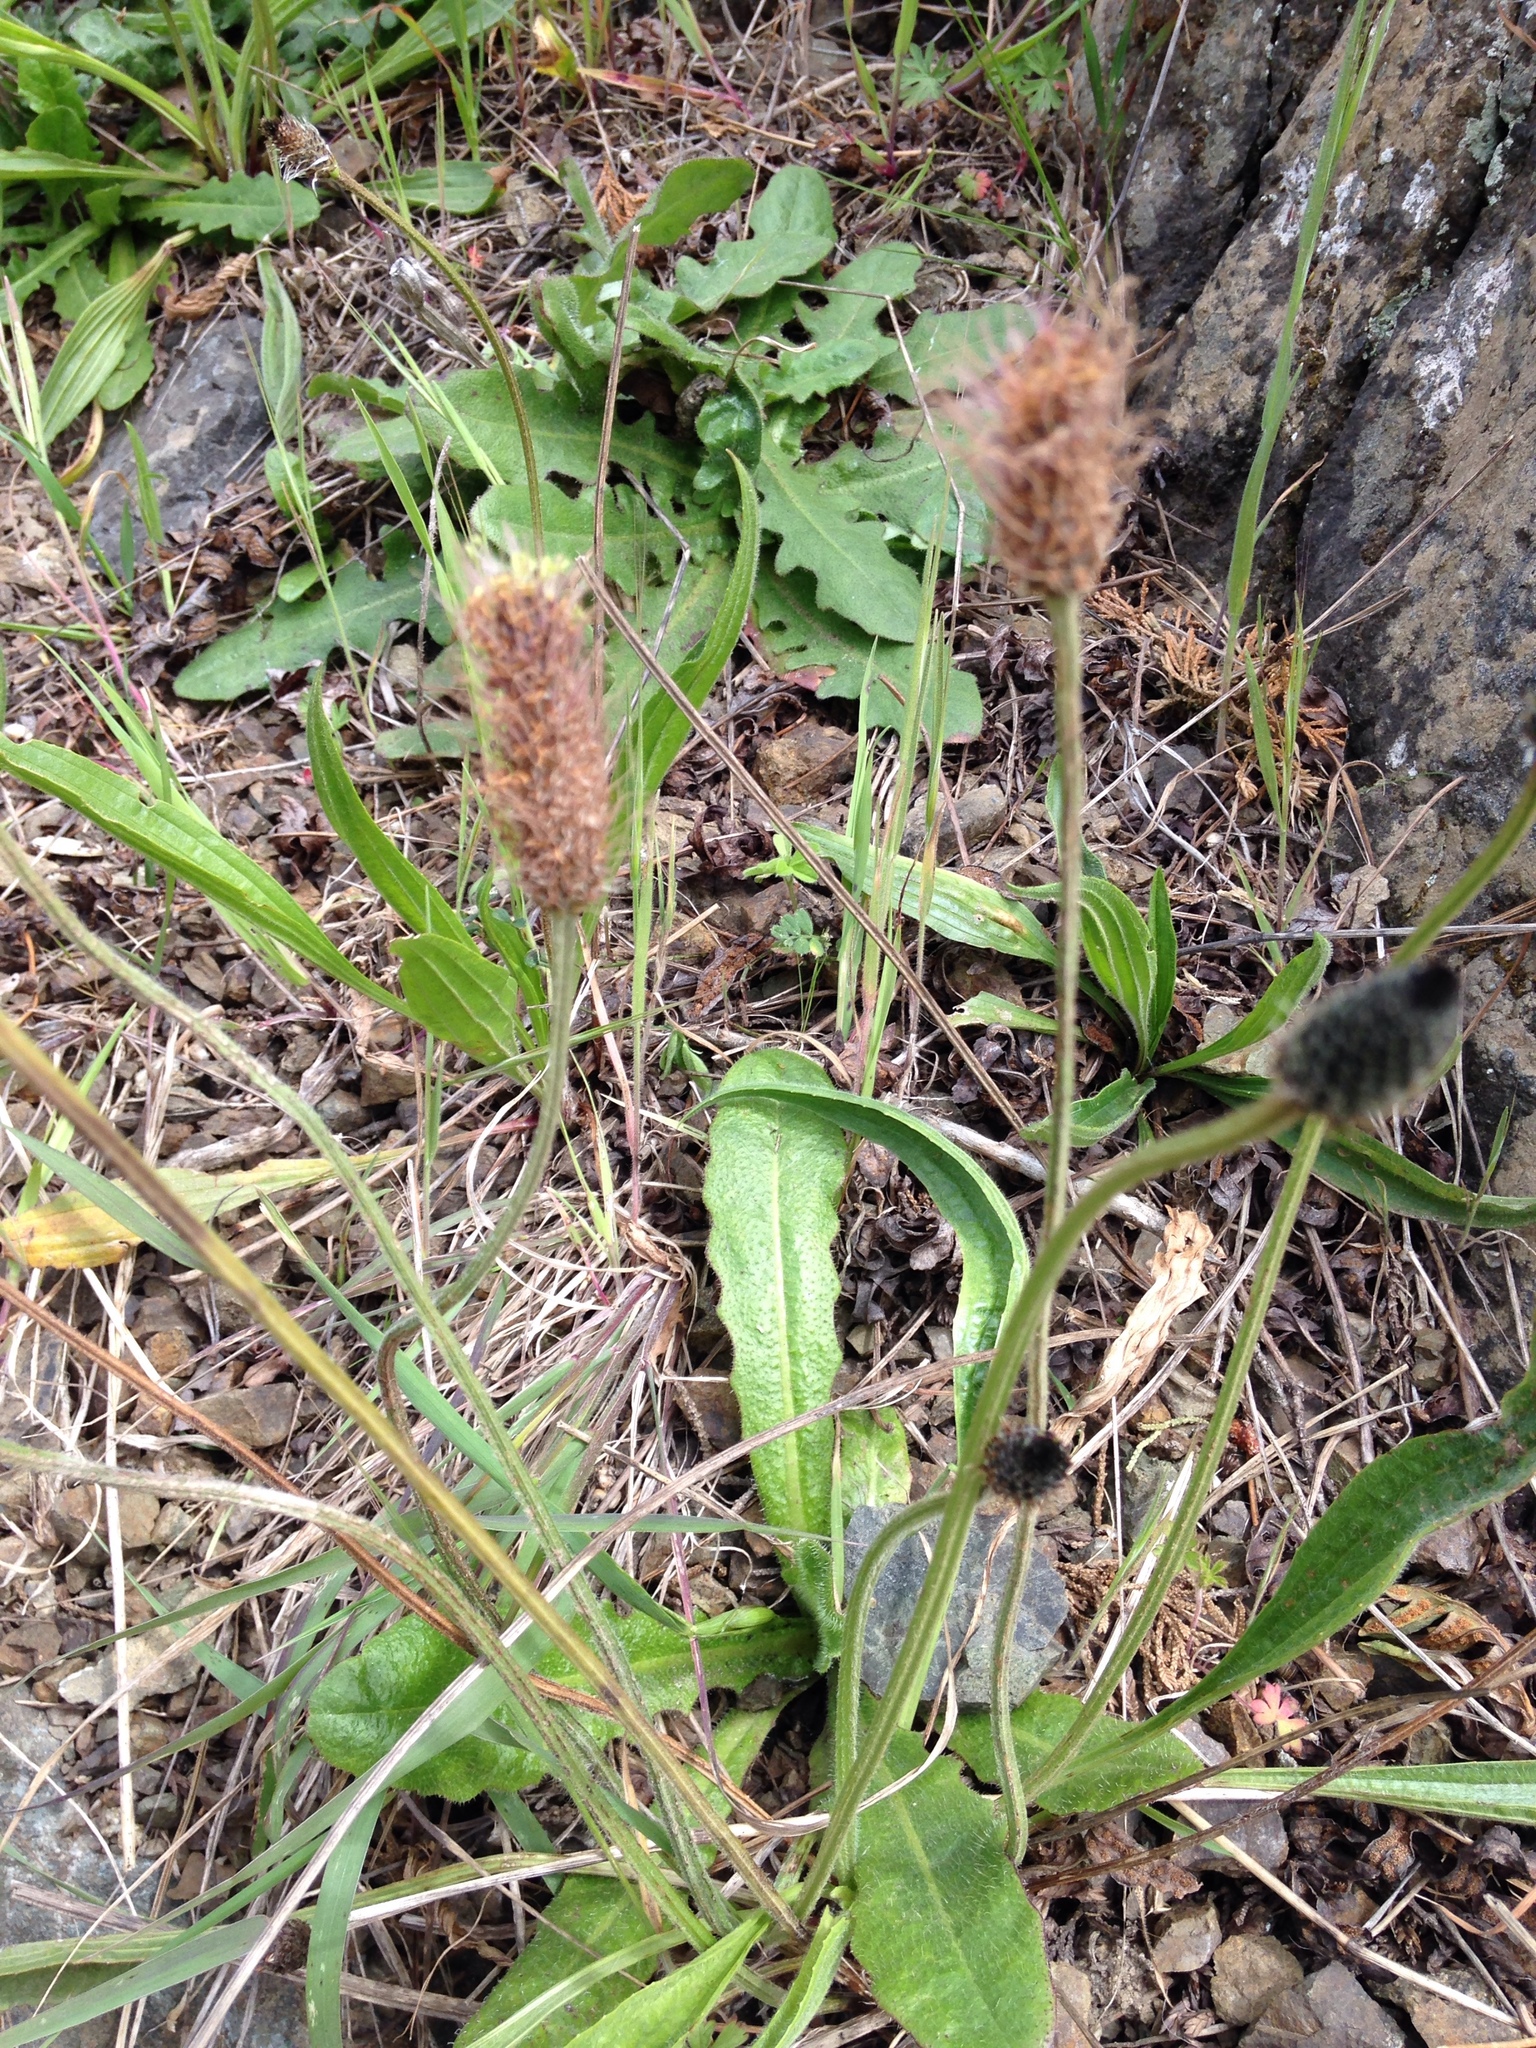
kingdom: Plantae
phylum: Tracheophyta
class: Magnoliopsida
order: Lamiales
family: Plantaginaceae
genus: Plantago
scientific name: Plantago lanceolata
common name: Ribwort plantain
